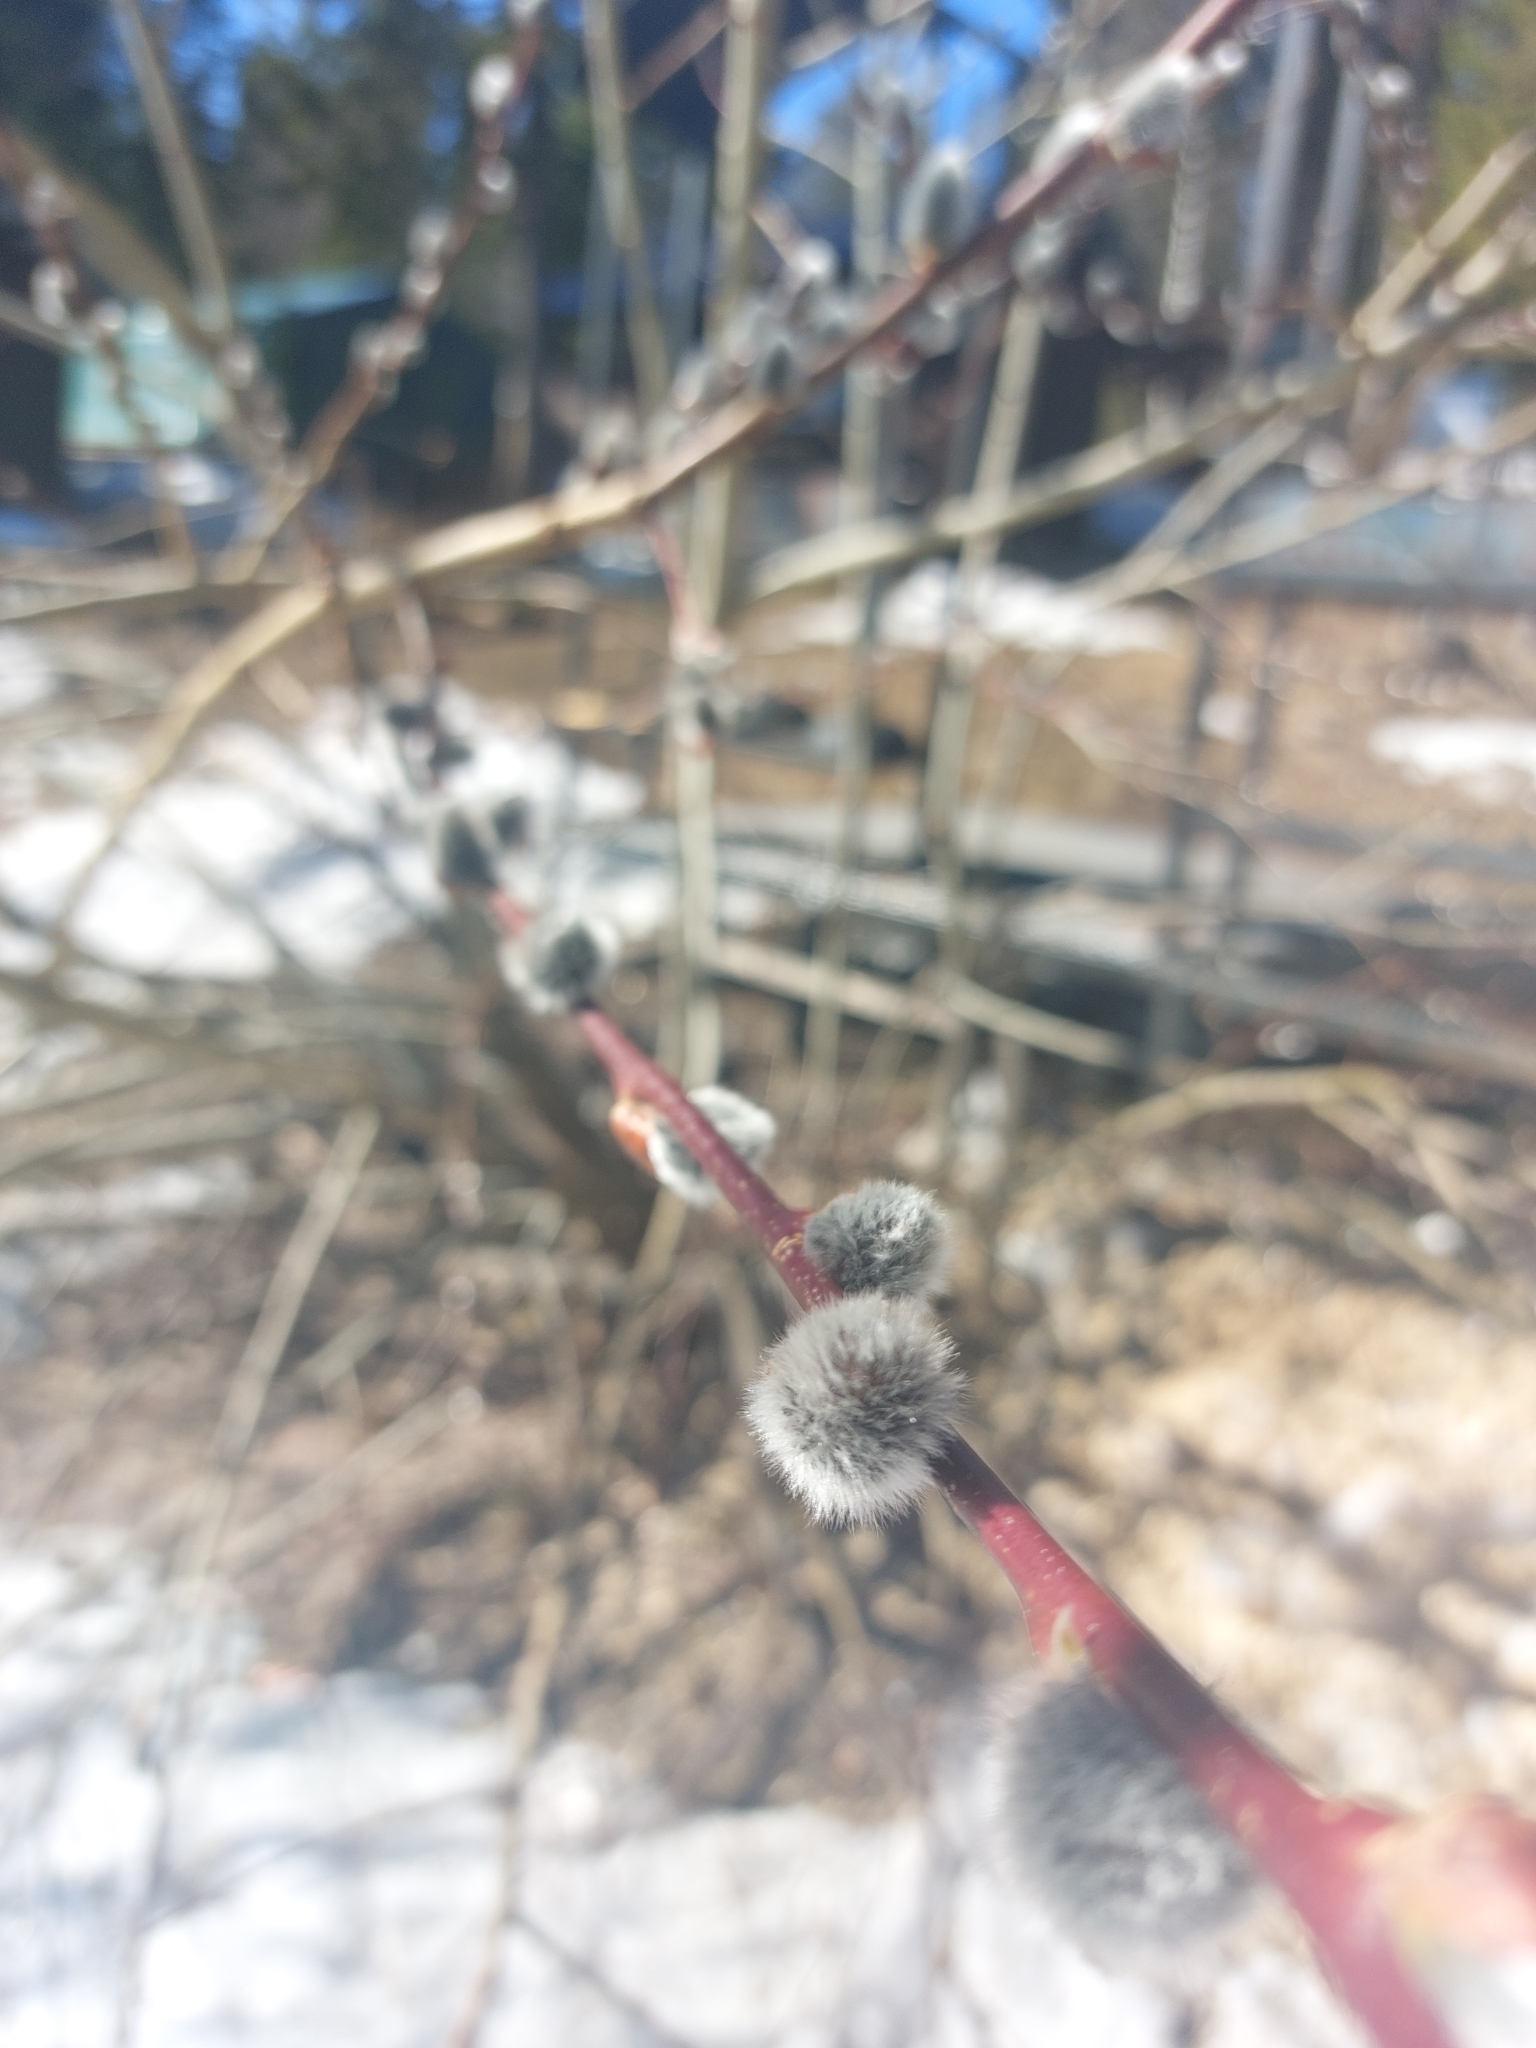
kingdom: Plantae
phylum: Tracheophyta
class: Magnoliopsida
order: Malpighiales
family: Salicaceae
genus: Salix
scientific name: Salix caprea
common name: Goat willow
